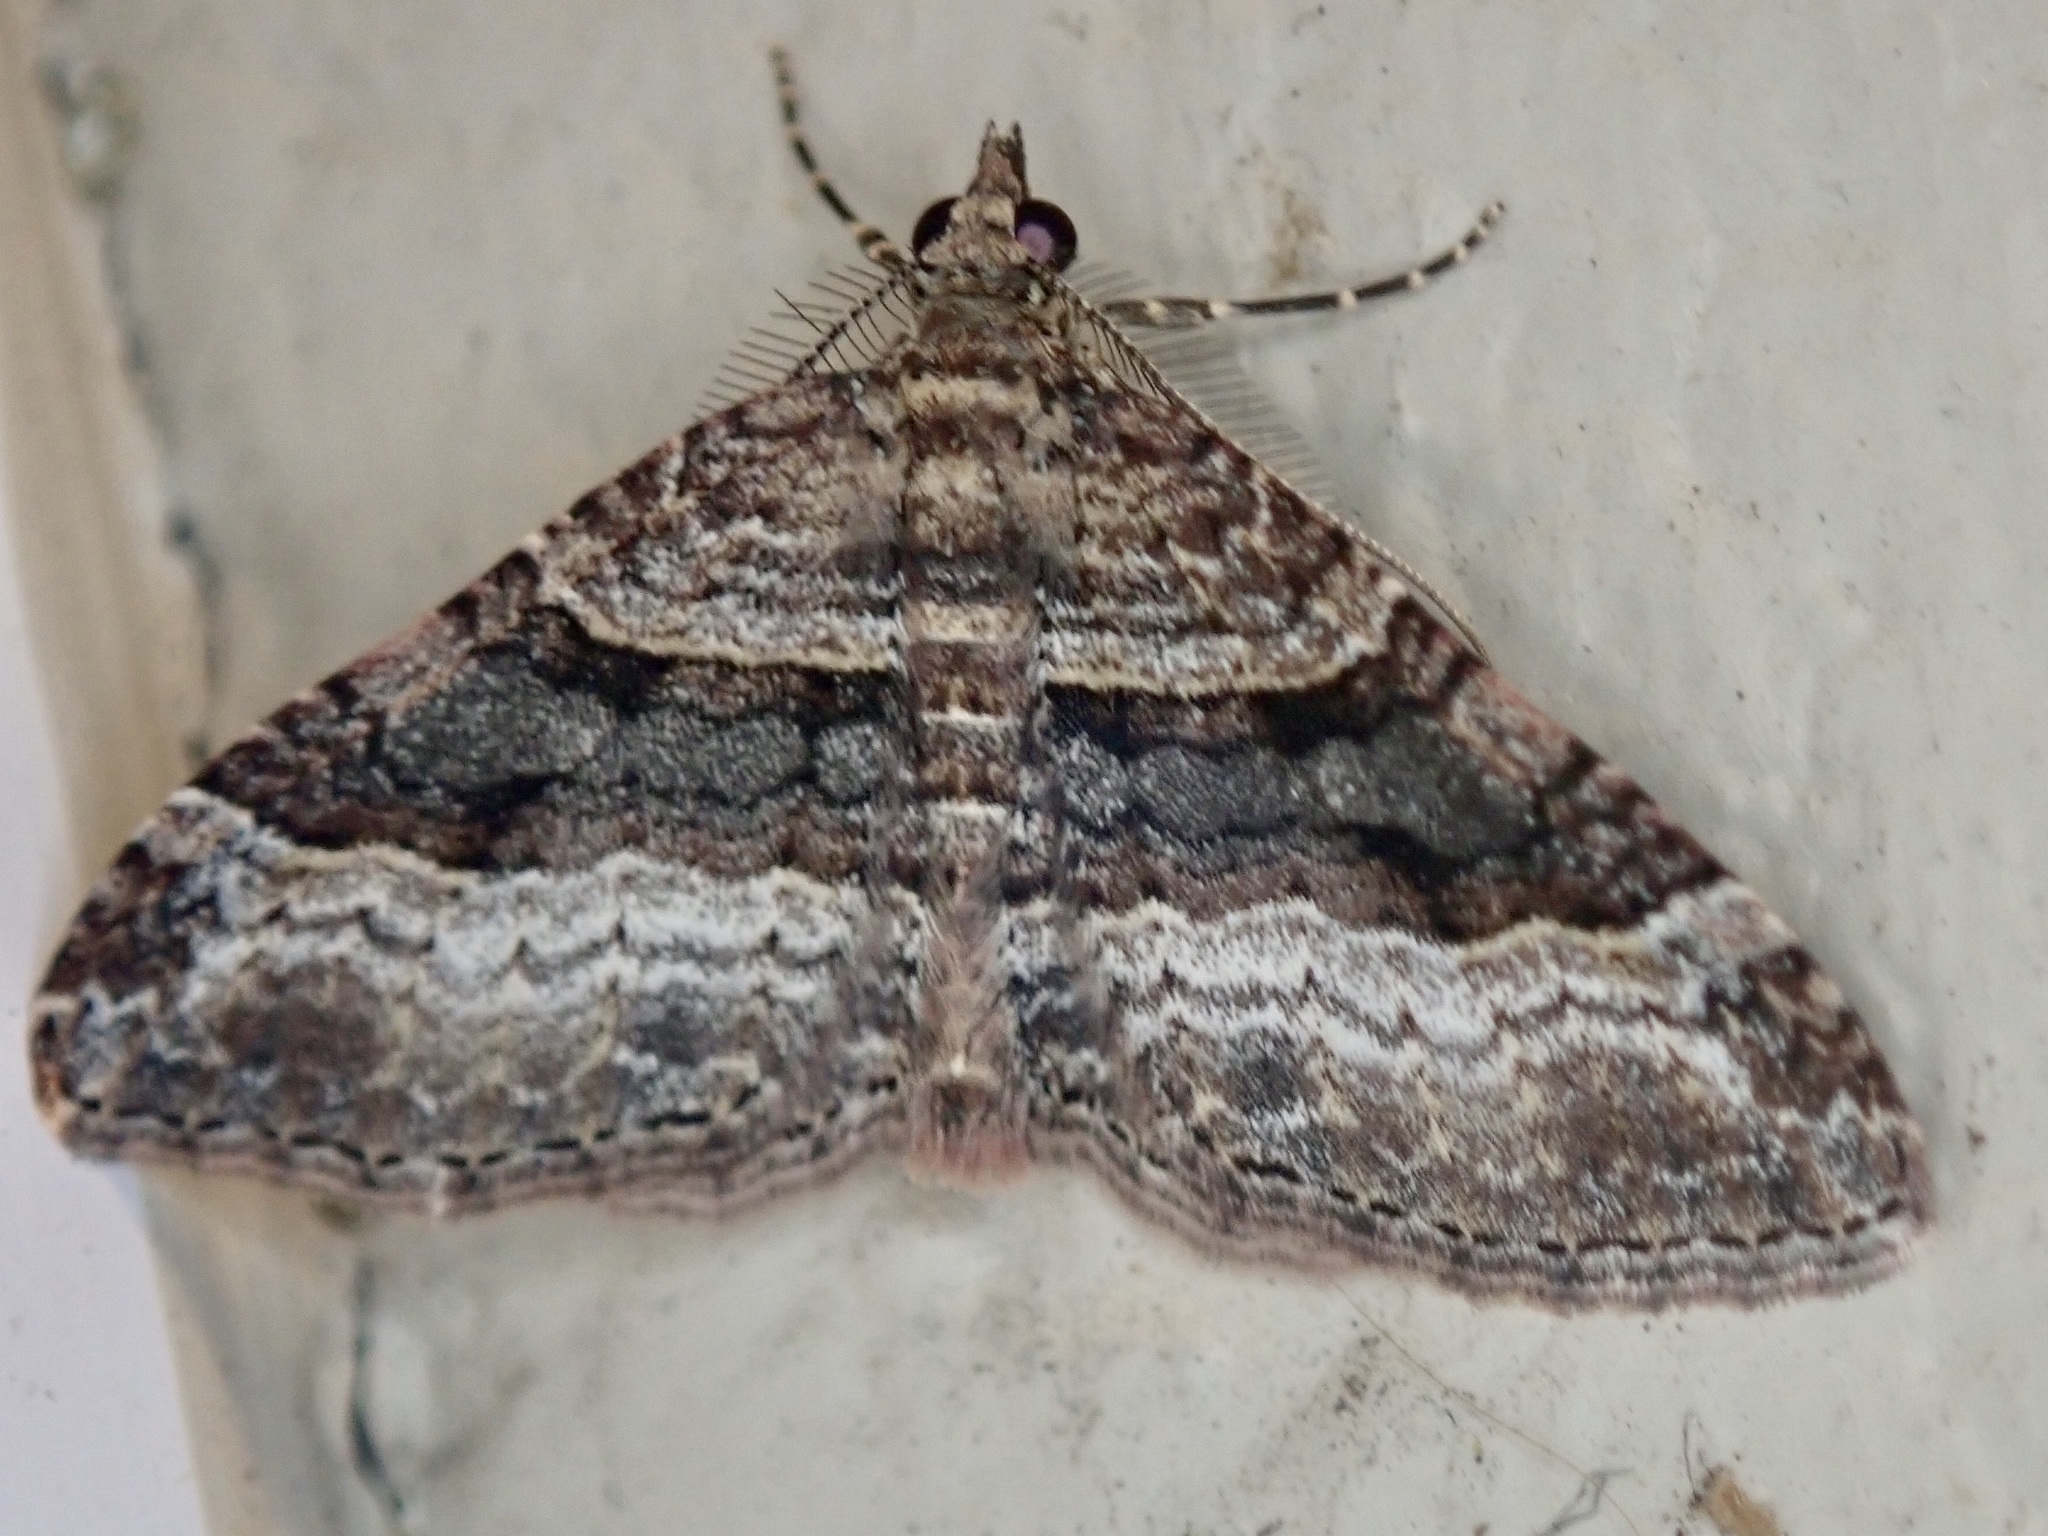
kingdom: Animalia
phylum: Arthropoda
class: Insecta
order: Lepidoptera
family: Geometridae
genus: Epyaxa
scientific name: Epyaxa lucidata
